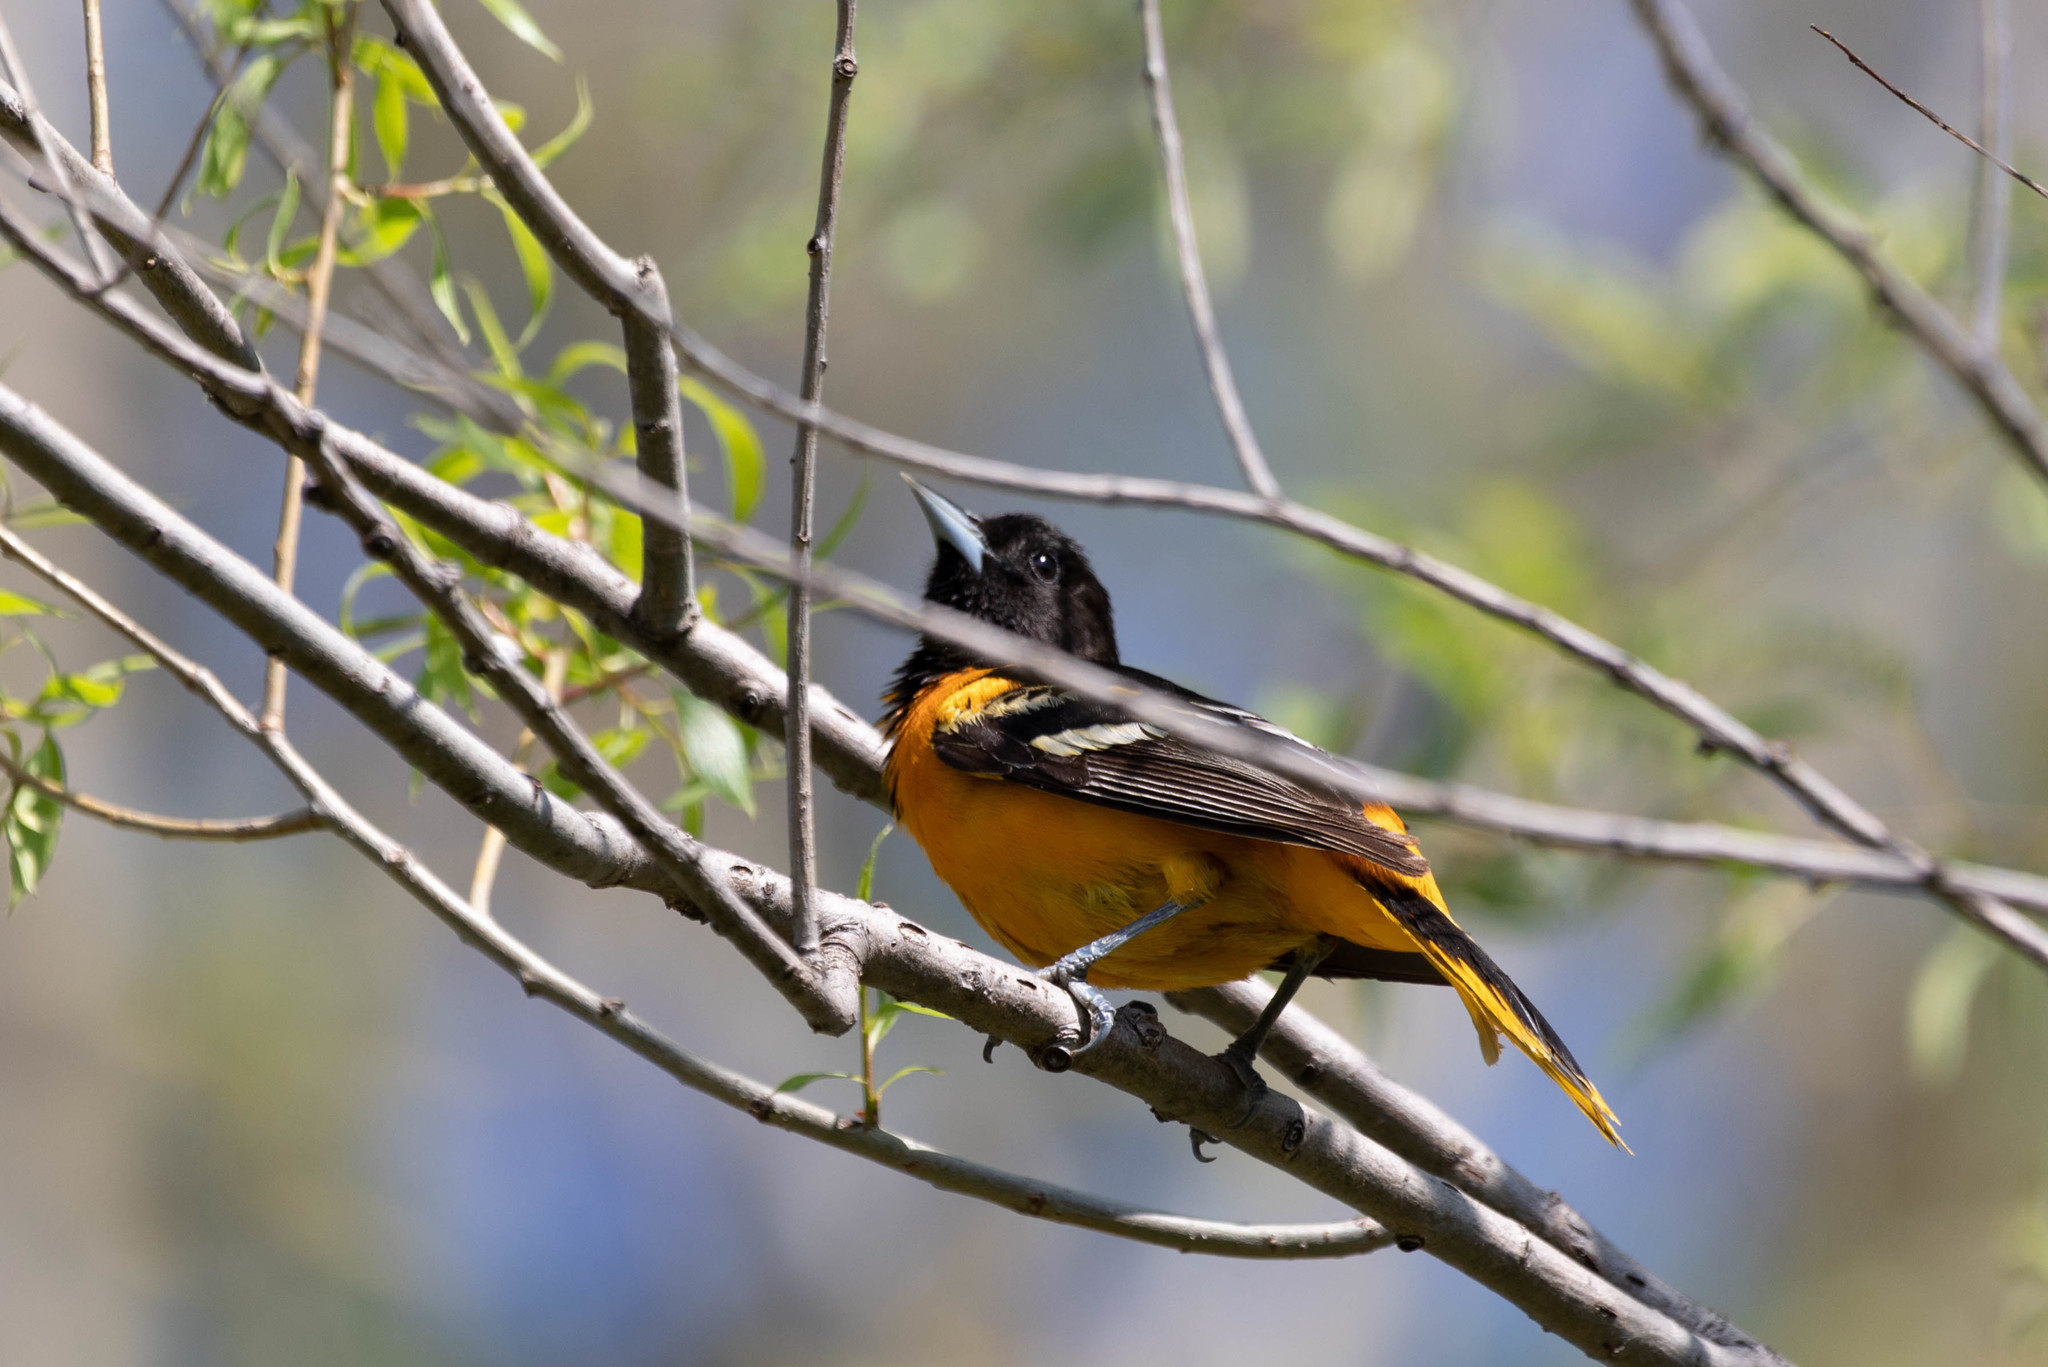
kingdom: Animalia
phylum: Chordata
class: Aves
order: Passeriformes
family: Icteridae
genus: Icterus
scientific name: Icterus galbula
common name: Baltimore oriole
